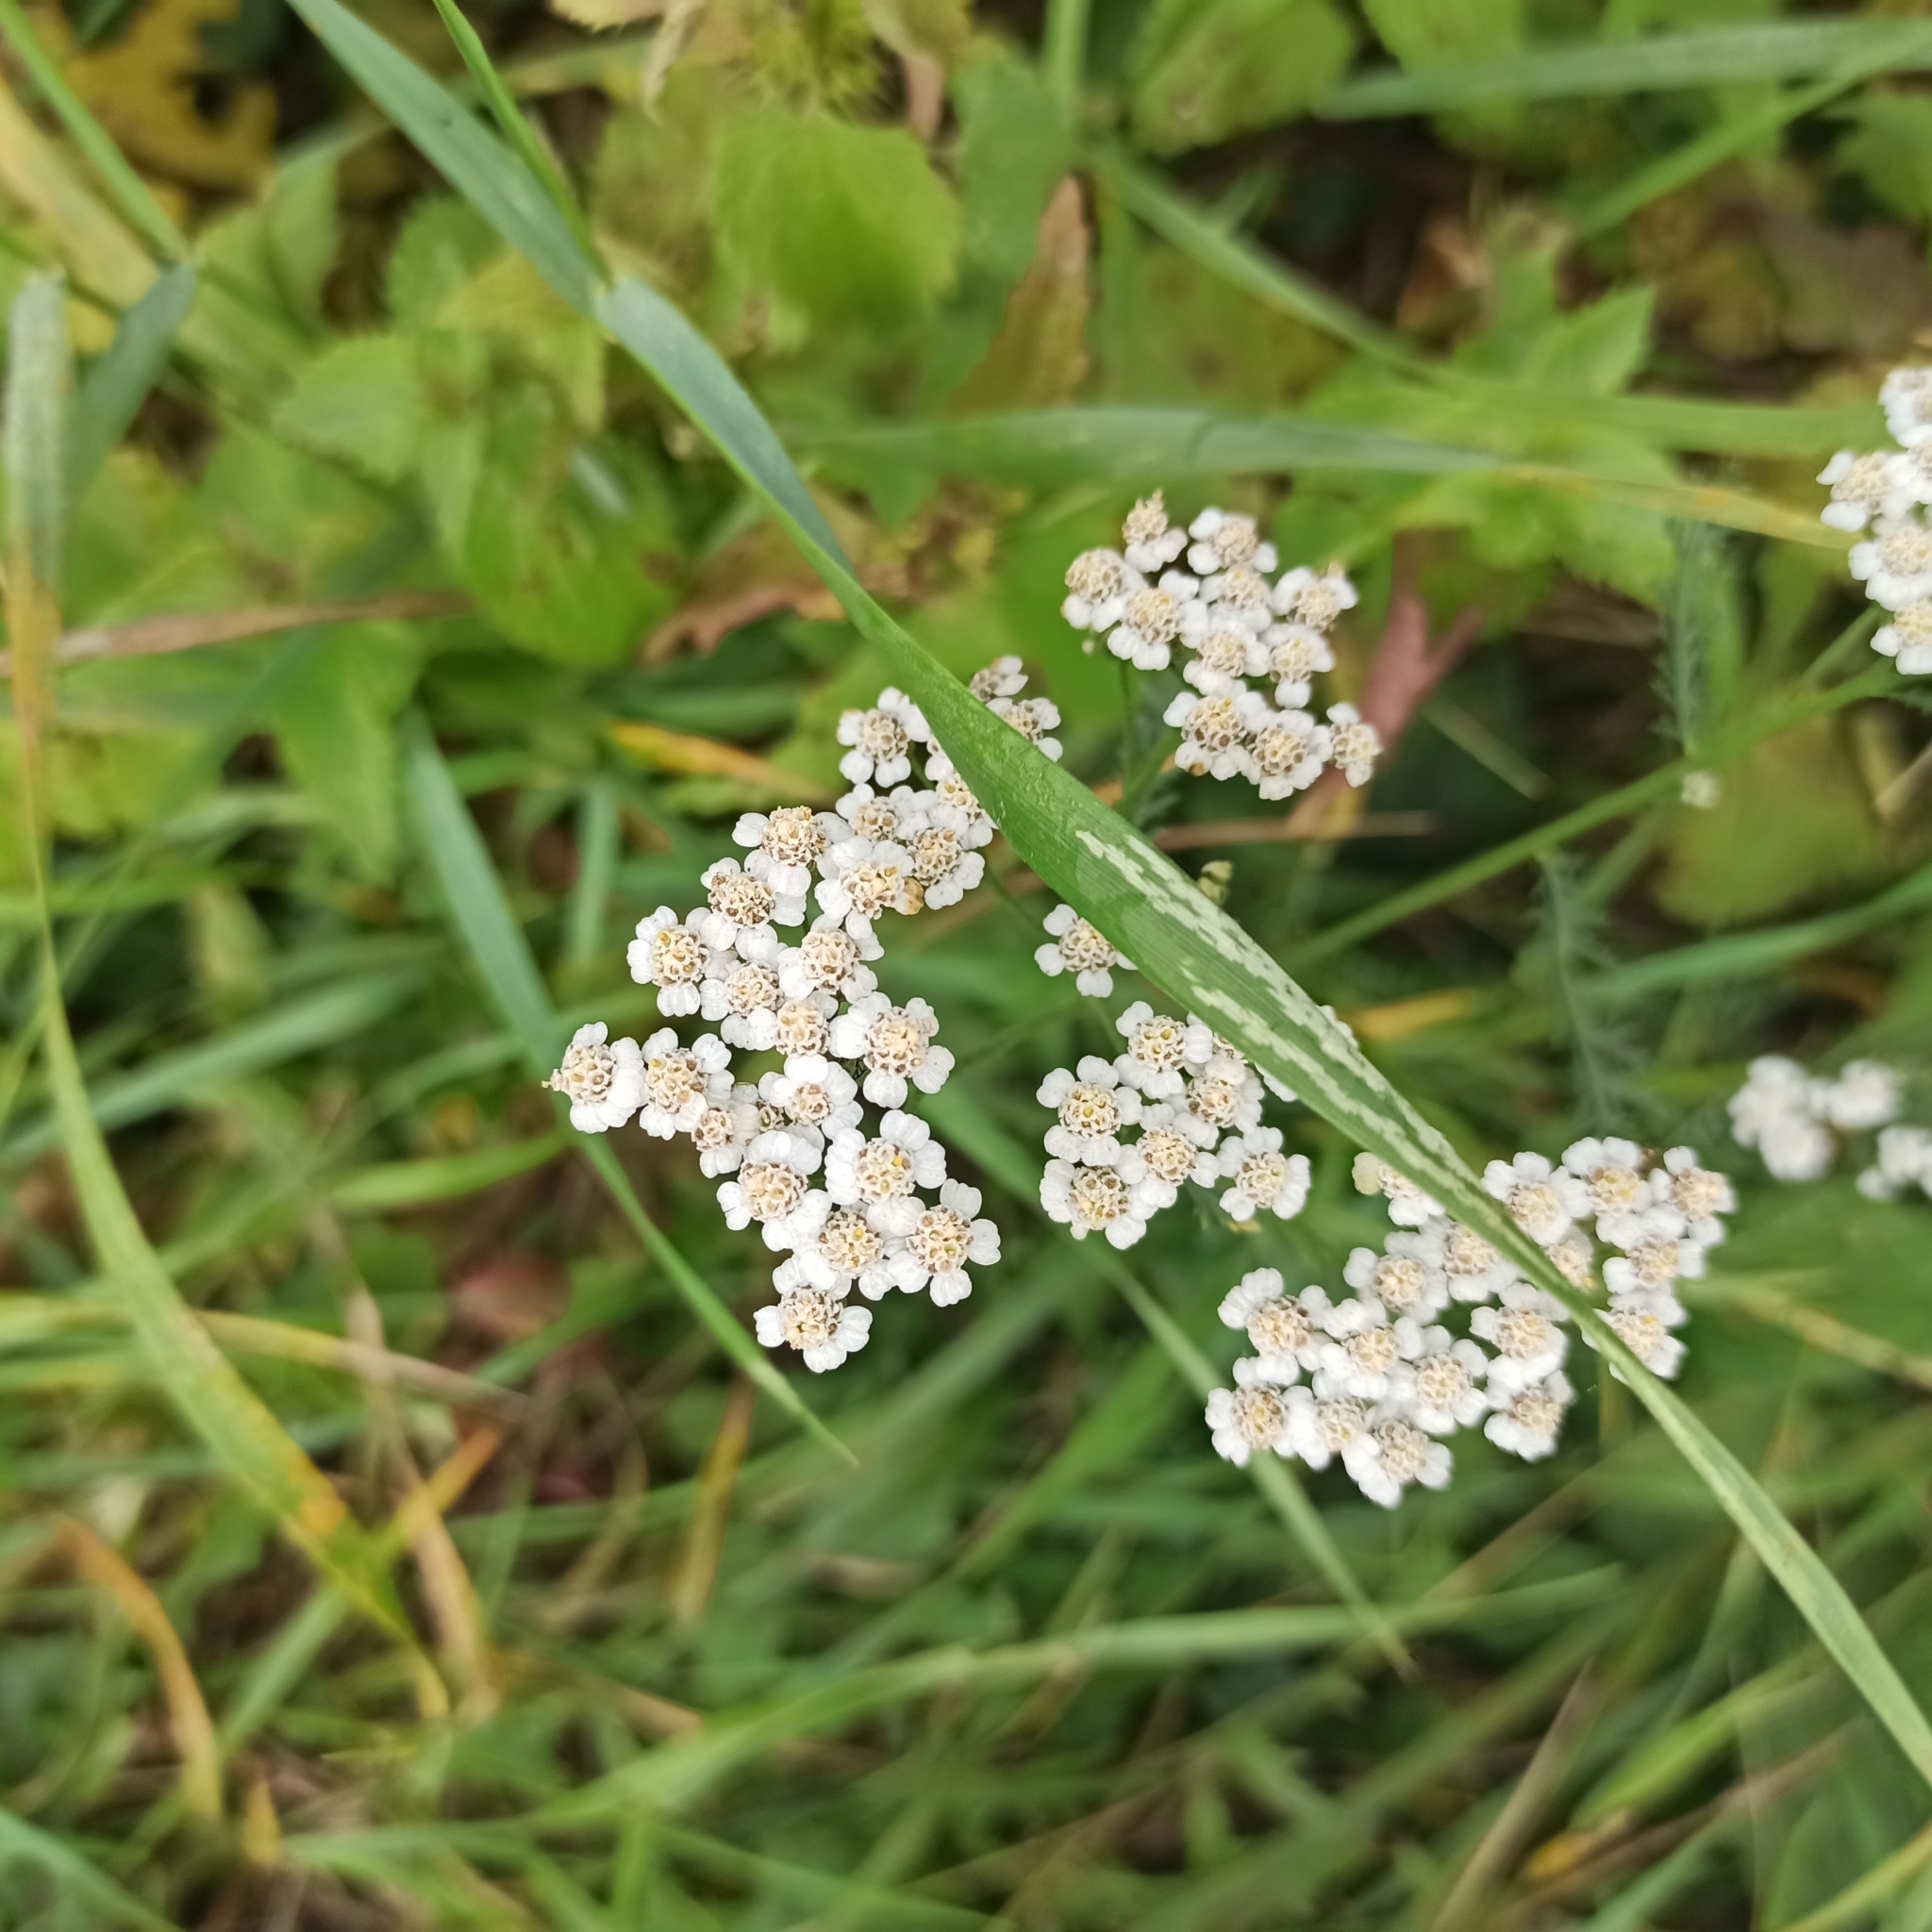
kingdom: Plantae
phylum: Tracheophyta
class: Magnoliopsida
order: Asterales
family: Asteraceae
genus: Achillea
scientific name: Achillea millefolium
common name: Yarrow
